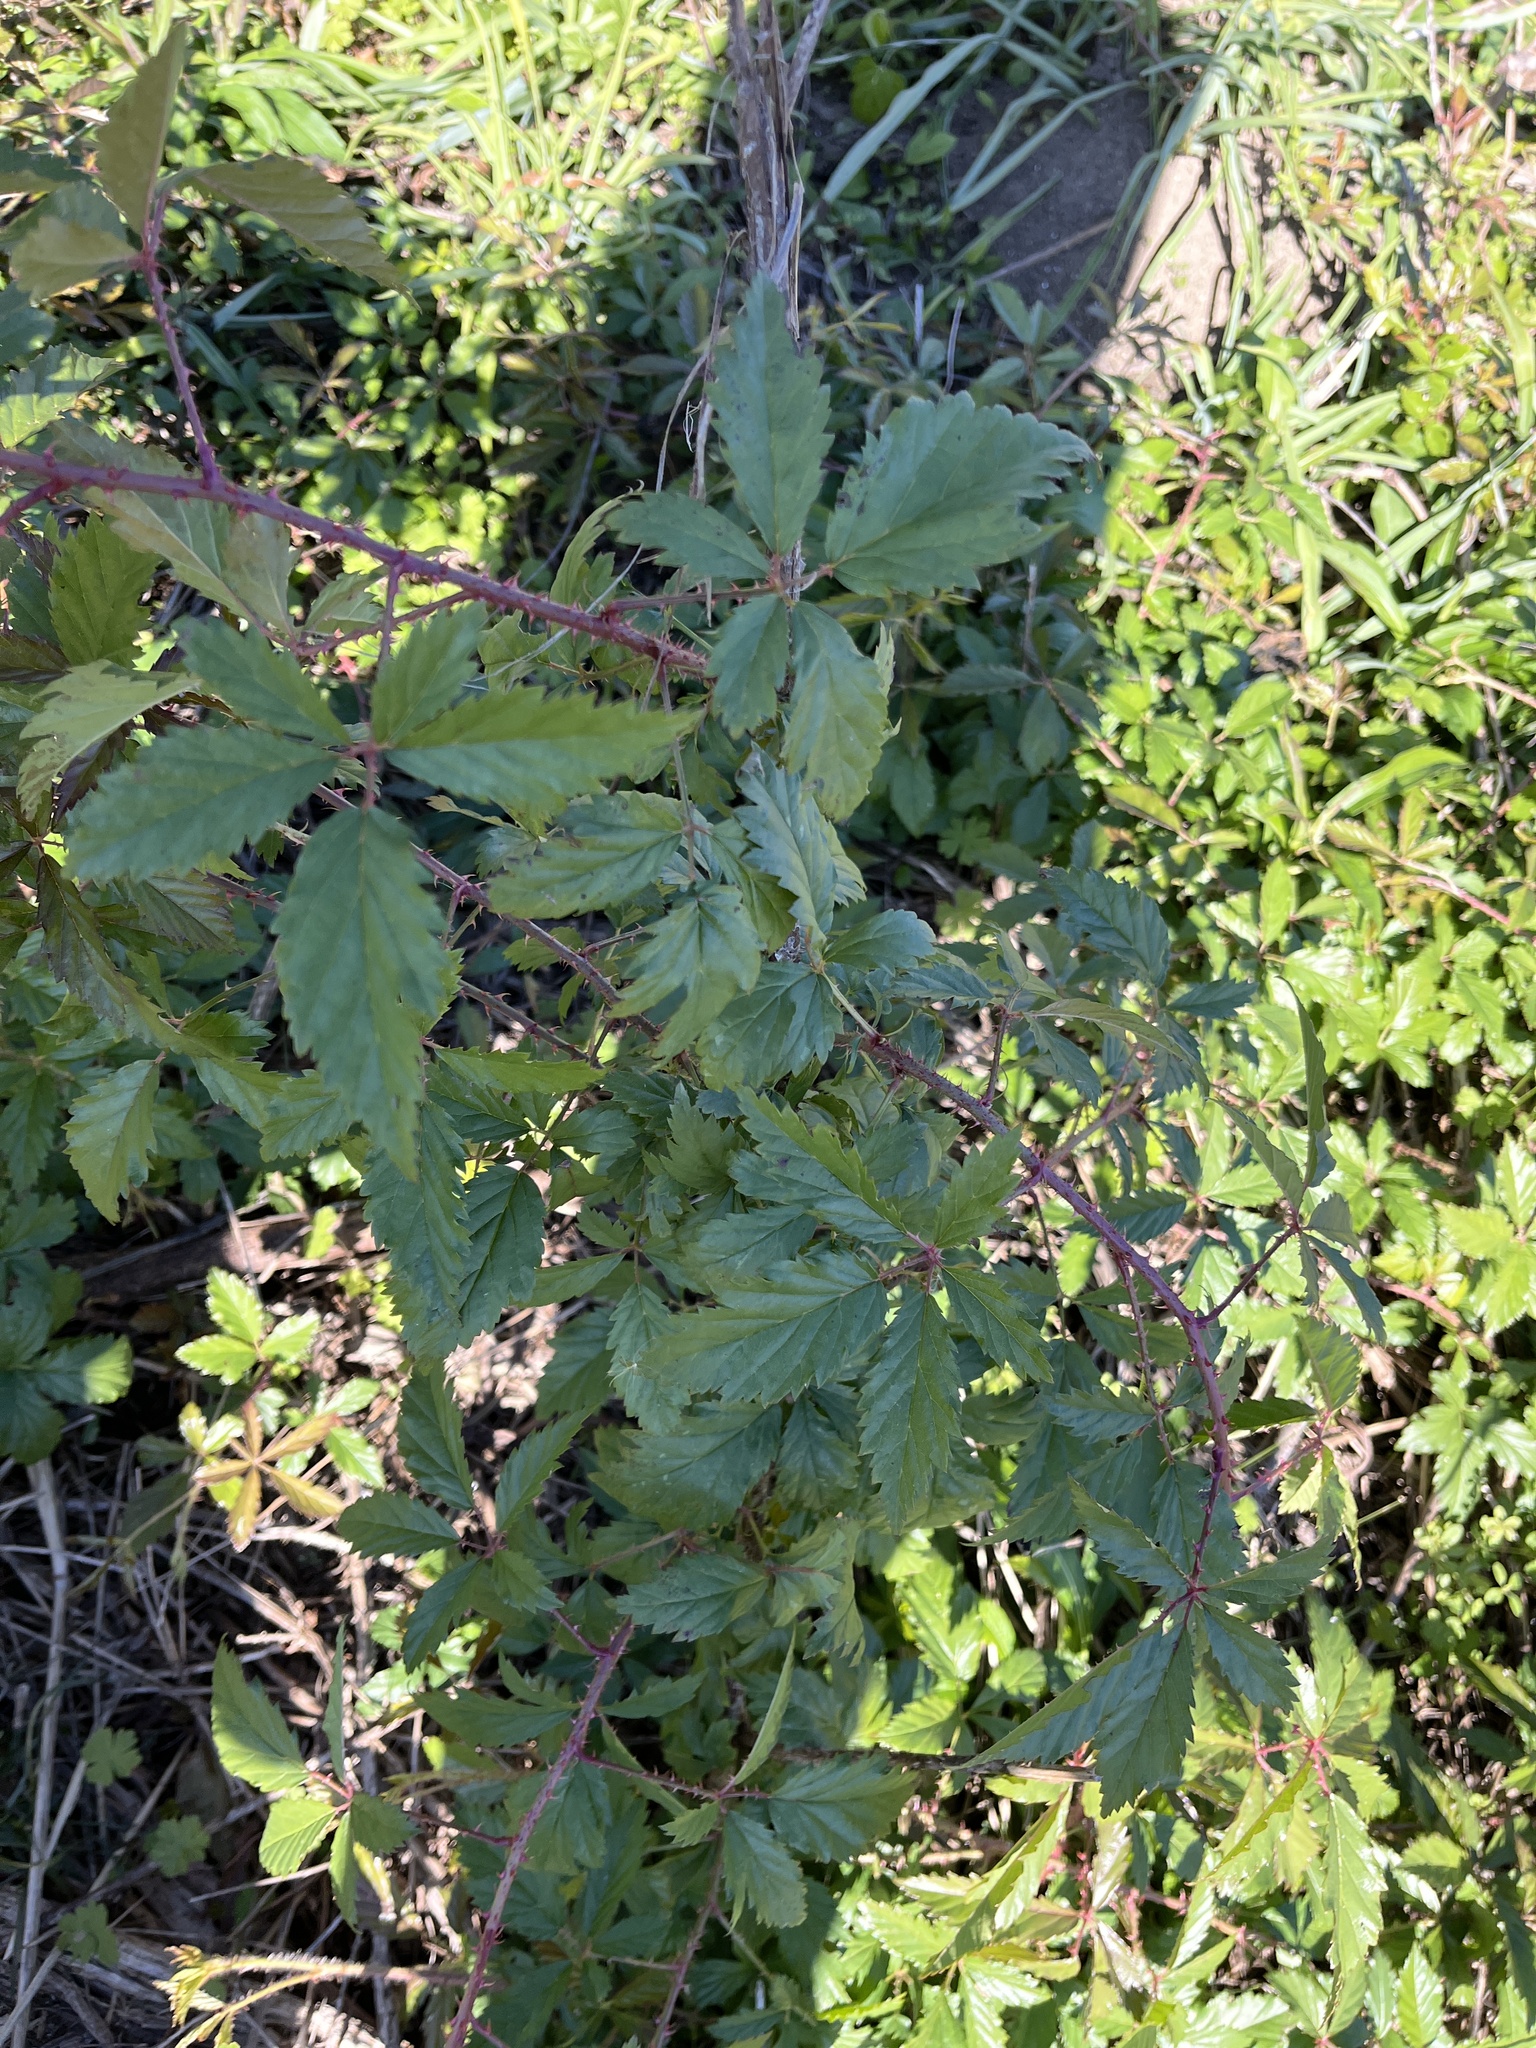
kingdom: Plantae
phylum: Tracheophyta
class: Magnoliopsida
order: Rosales
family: Rosaceae
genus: Rubus
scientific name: Rubus trivialis
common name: Southern dewberry
